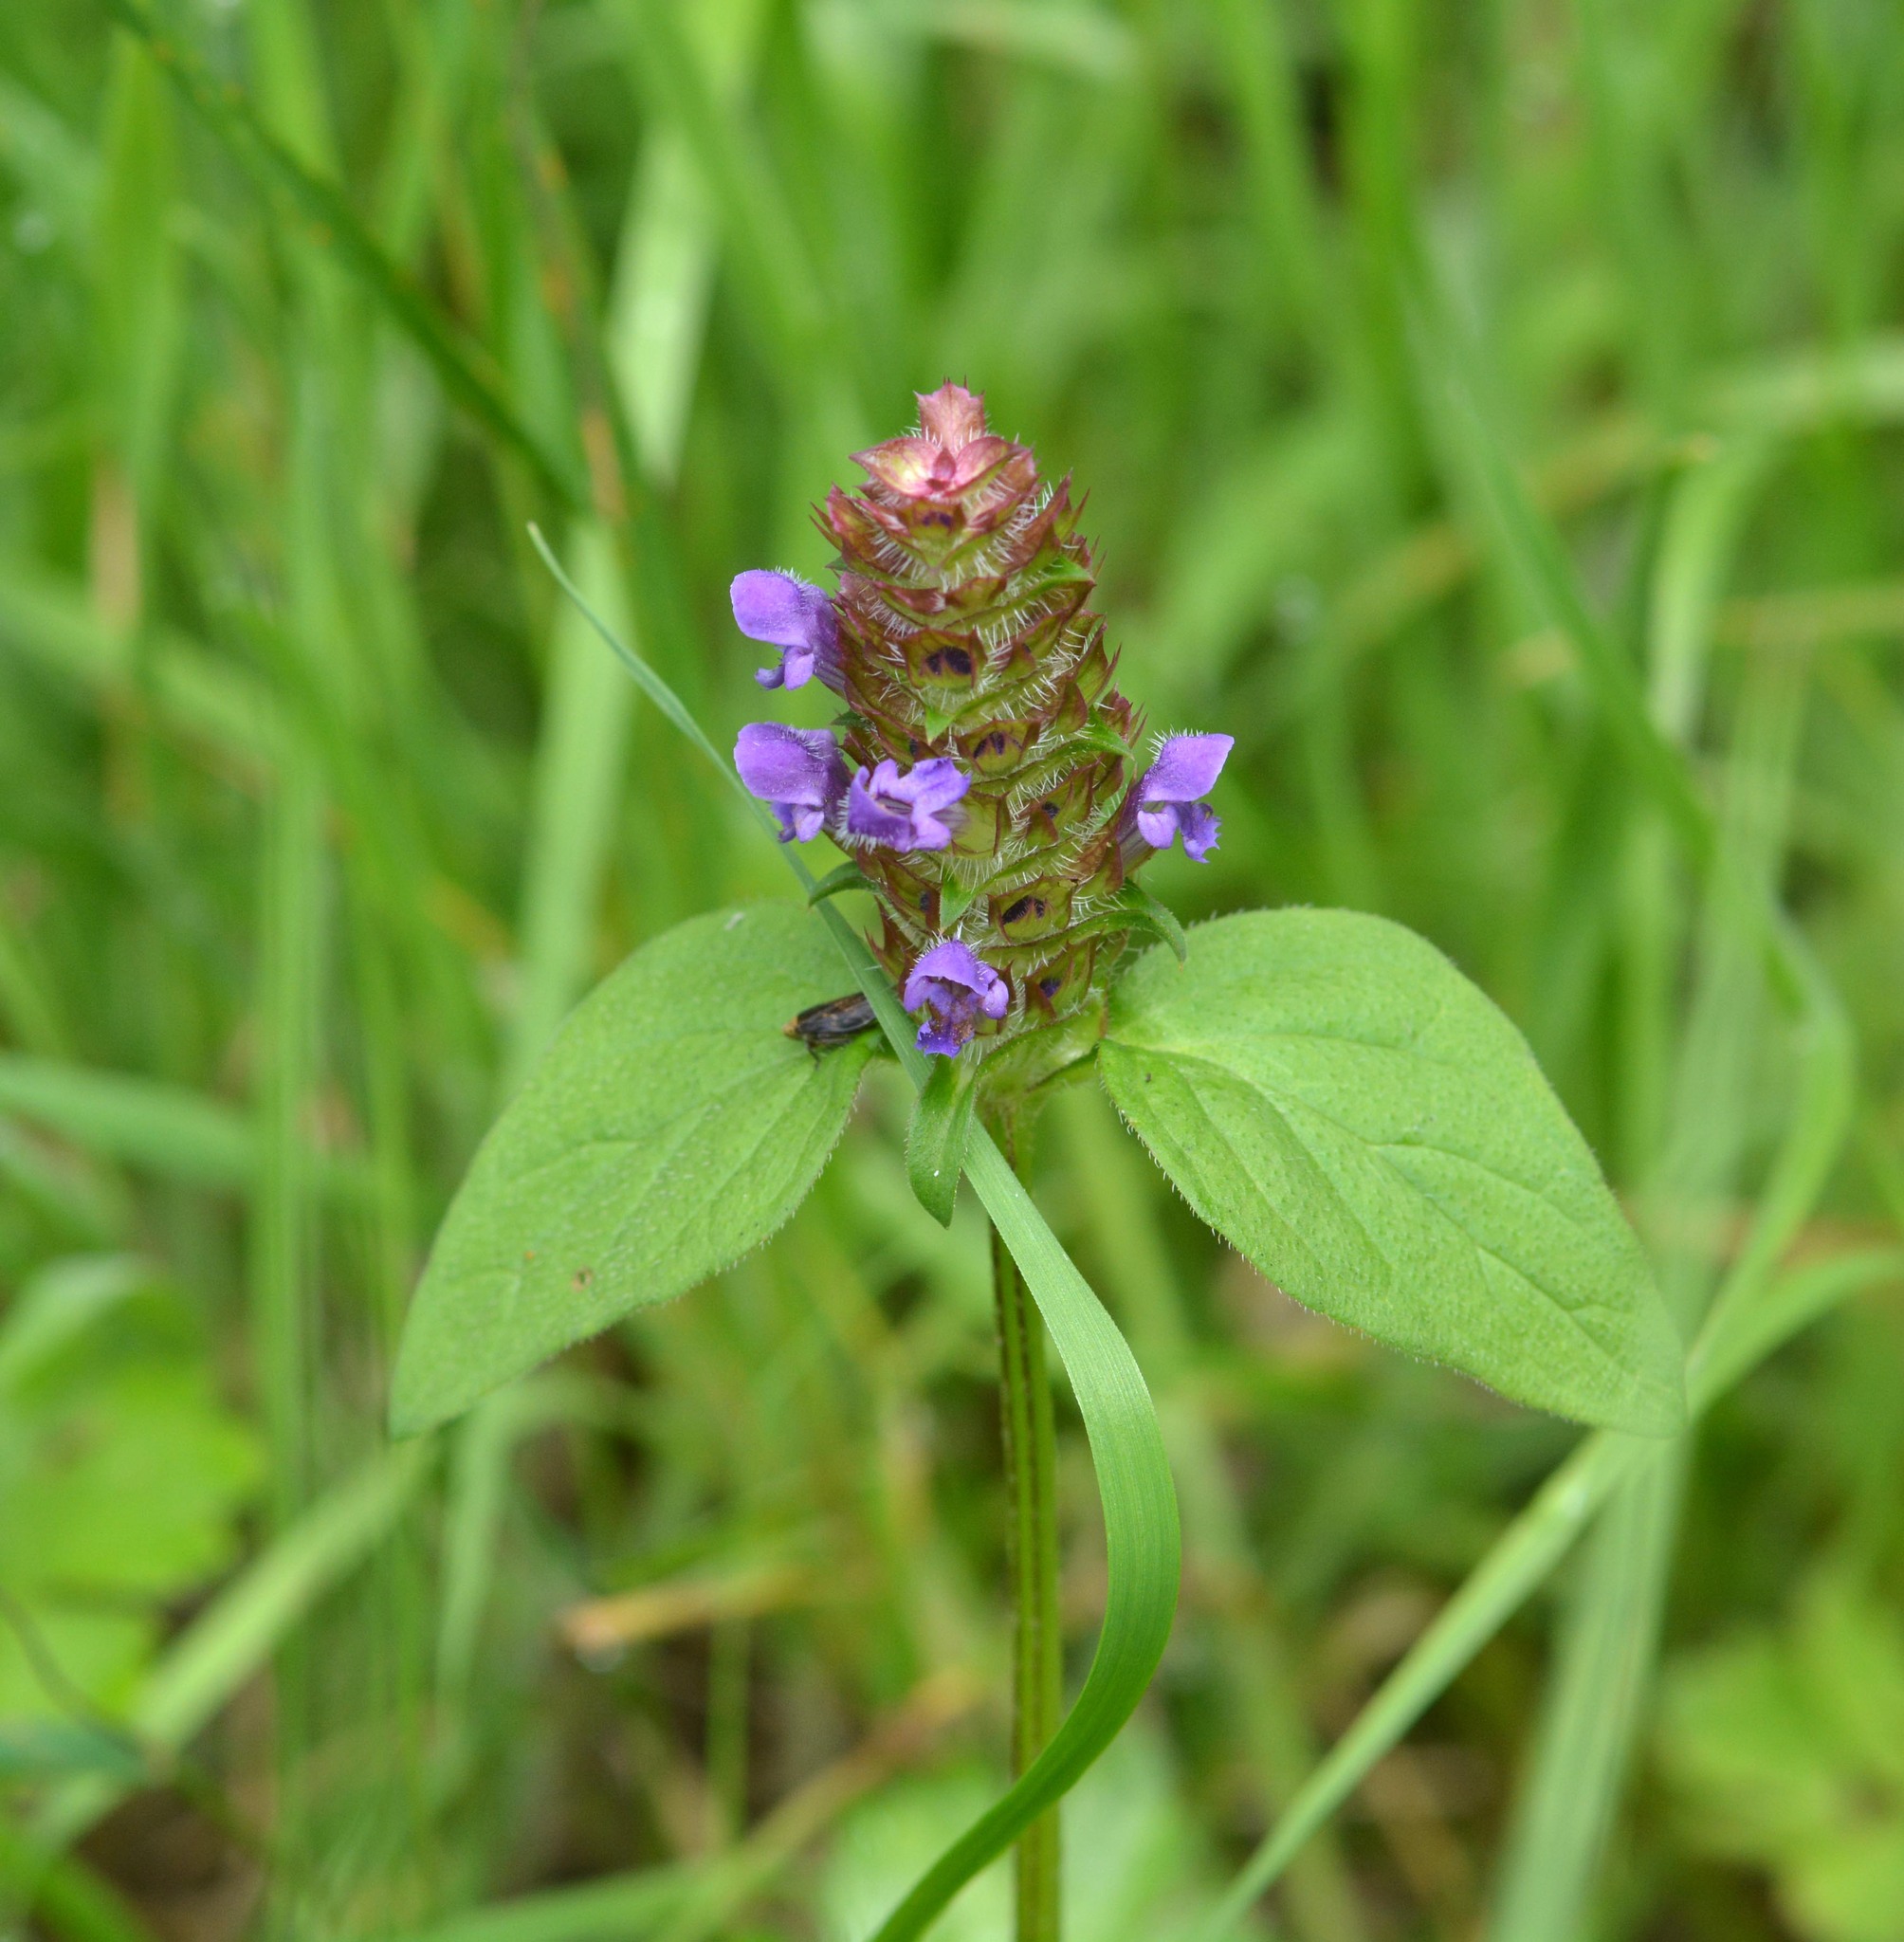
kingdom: Plantae
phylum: Tracheophyta
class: Magnoliopsida
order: Lamiales
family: Lamiaceae
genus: Prunella
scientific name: Prunella vulgaris
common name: Heal-all
